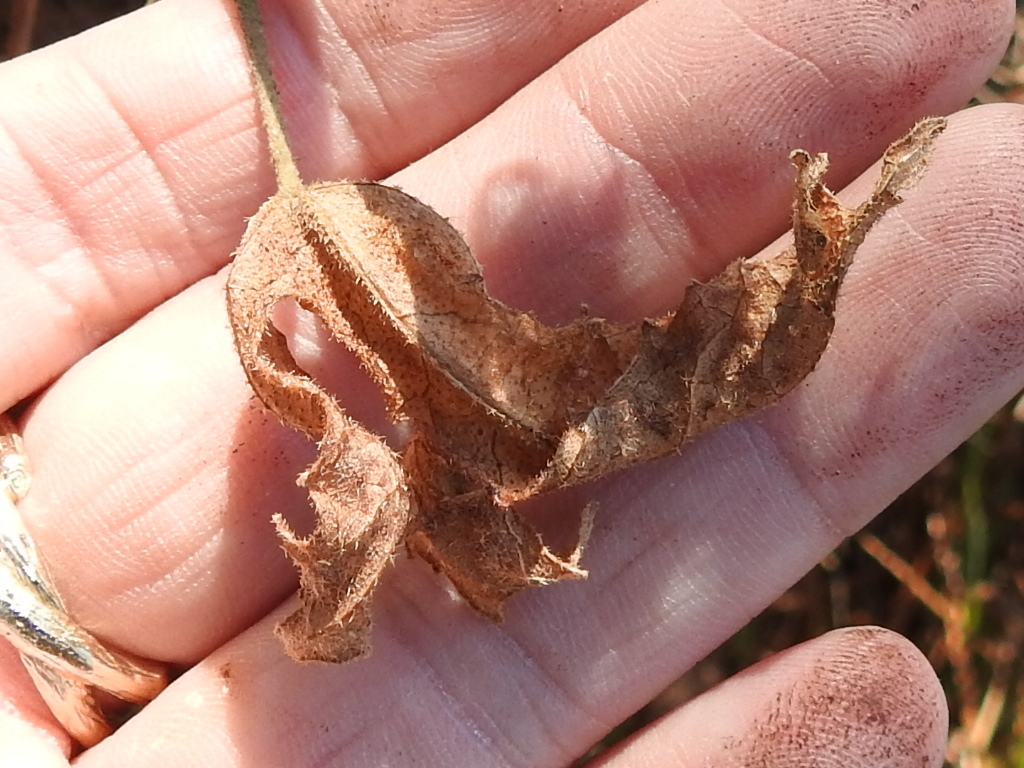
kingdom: Plantae
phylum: Tracheophyta
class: Magnoliopsida
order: Malvales
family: Malvaceae
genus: Hibiscus
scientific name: Hibiscus aculeatus
